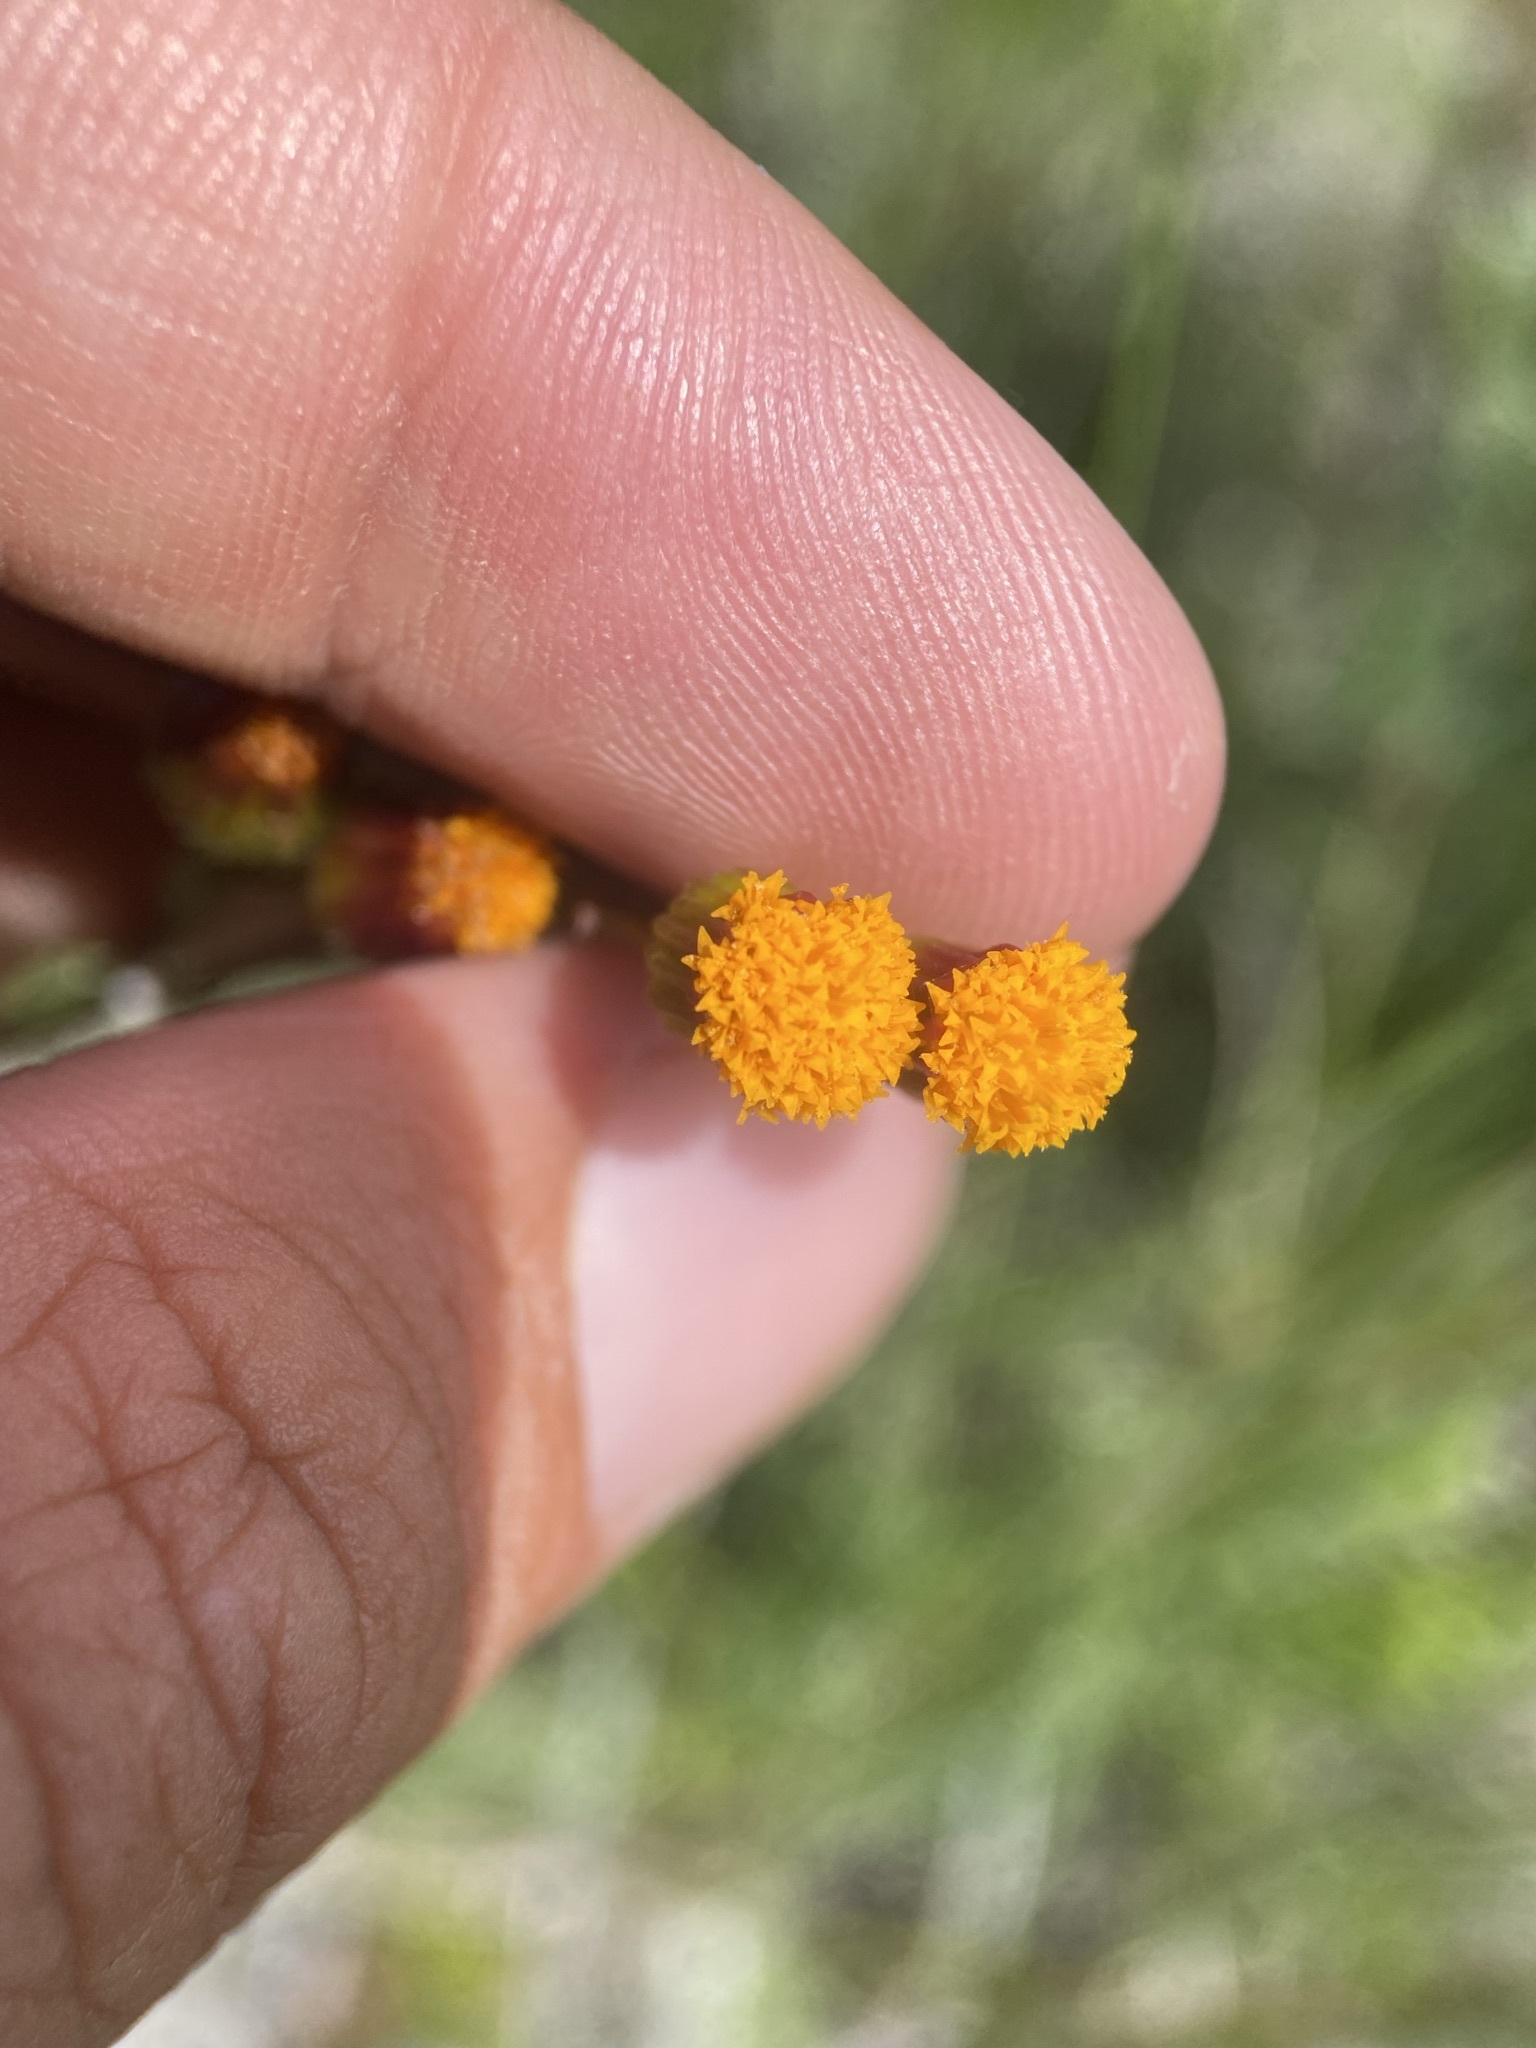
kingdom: Plantae
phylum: Tracheophyta
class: Magnoliopsida
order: Asterales
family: Asteraceae
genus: Packera
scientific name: Packera debilis
